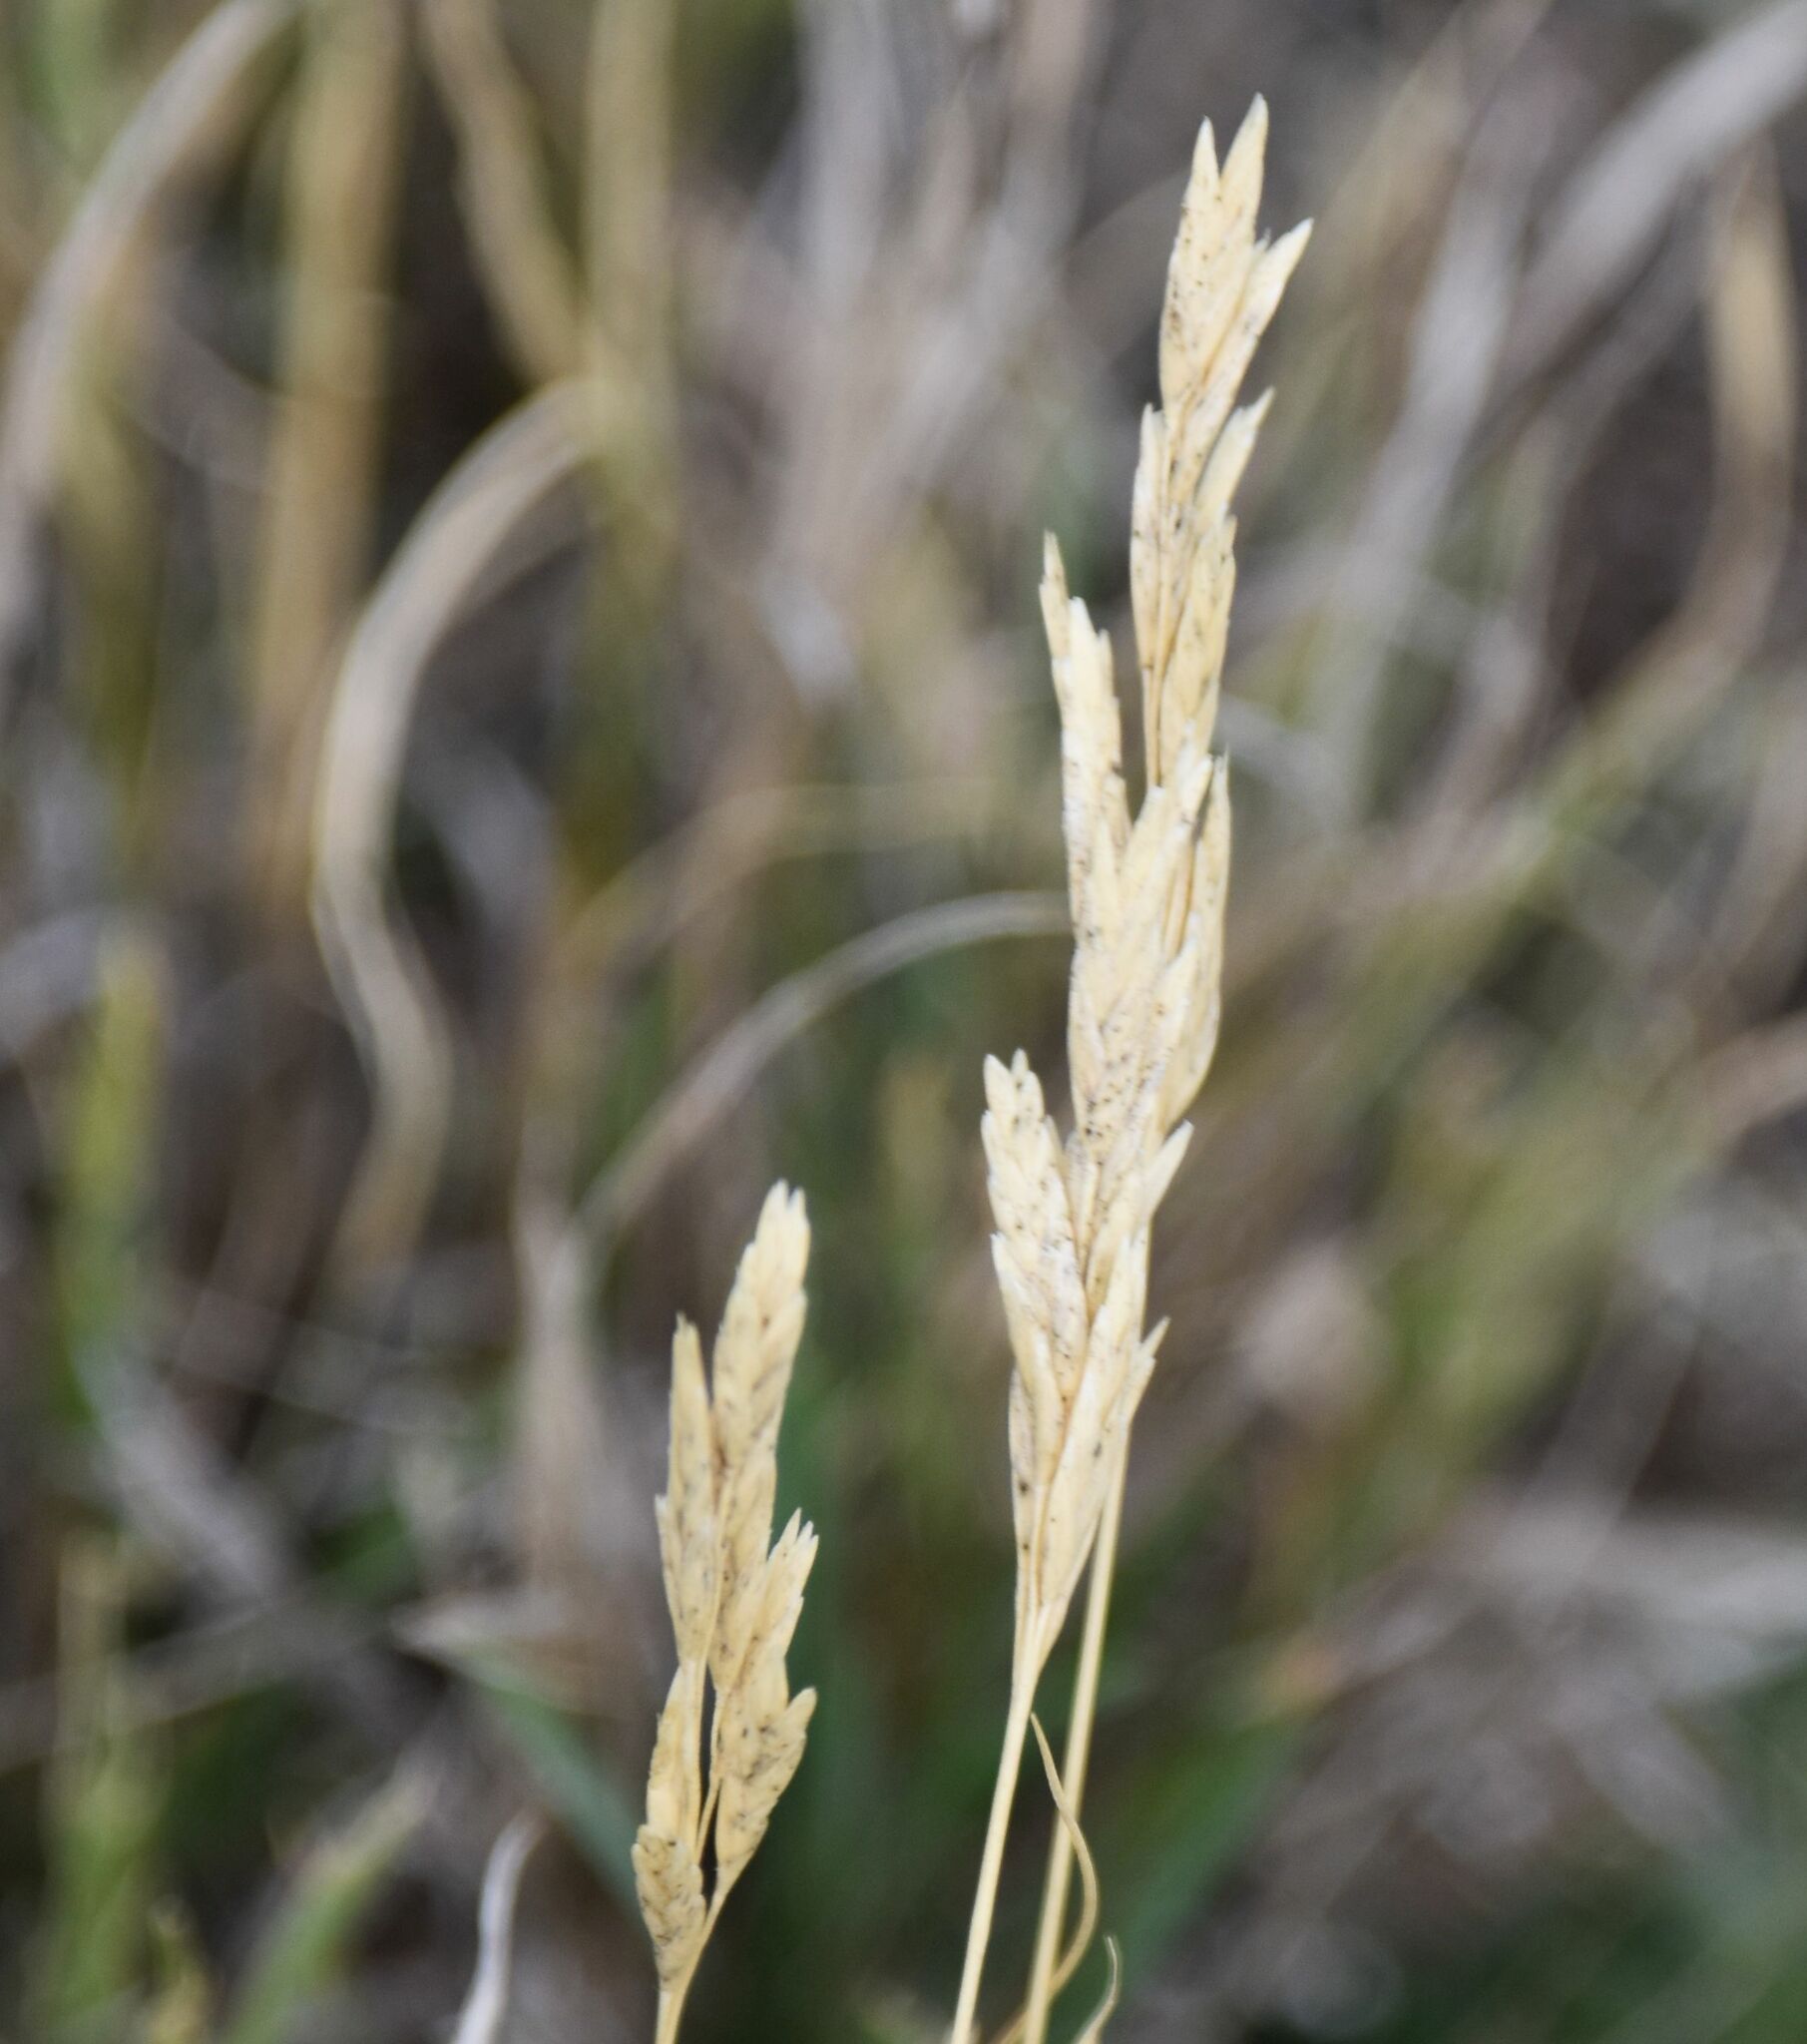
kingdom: Plantae
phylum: Tracheophyta
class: Liliopsida
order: Poales
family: Poaceae
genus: Distichlis
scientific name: Distichlis spicata
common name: Saltgrass
